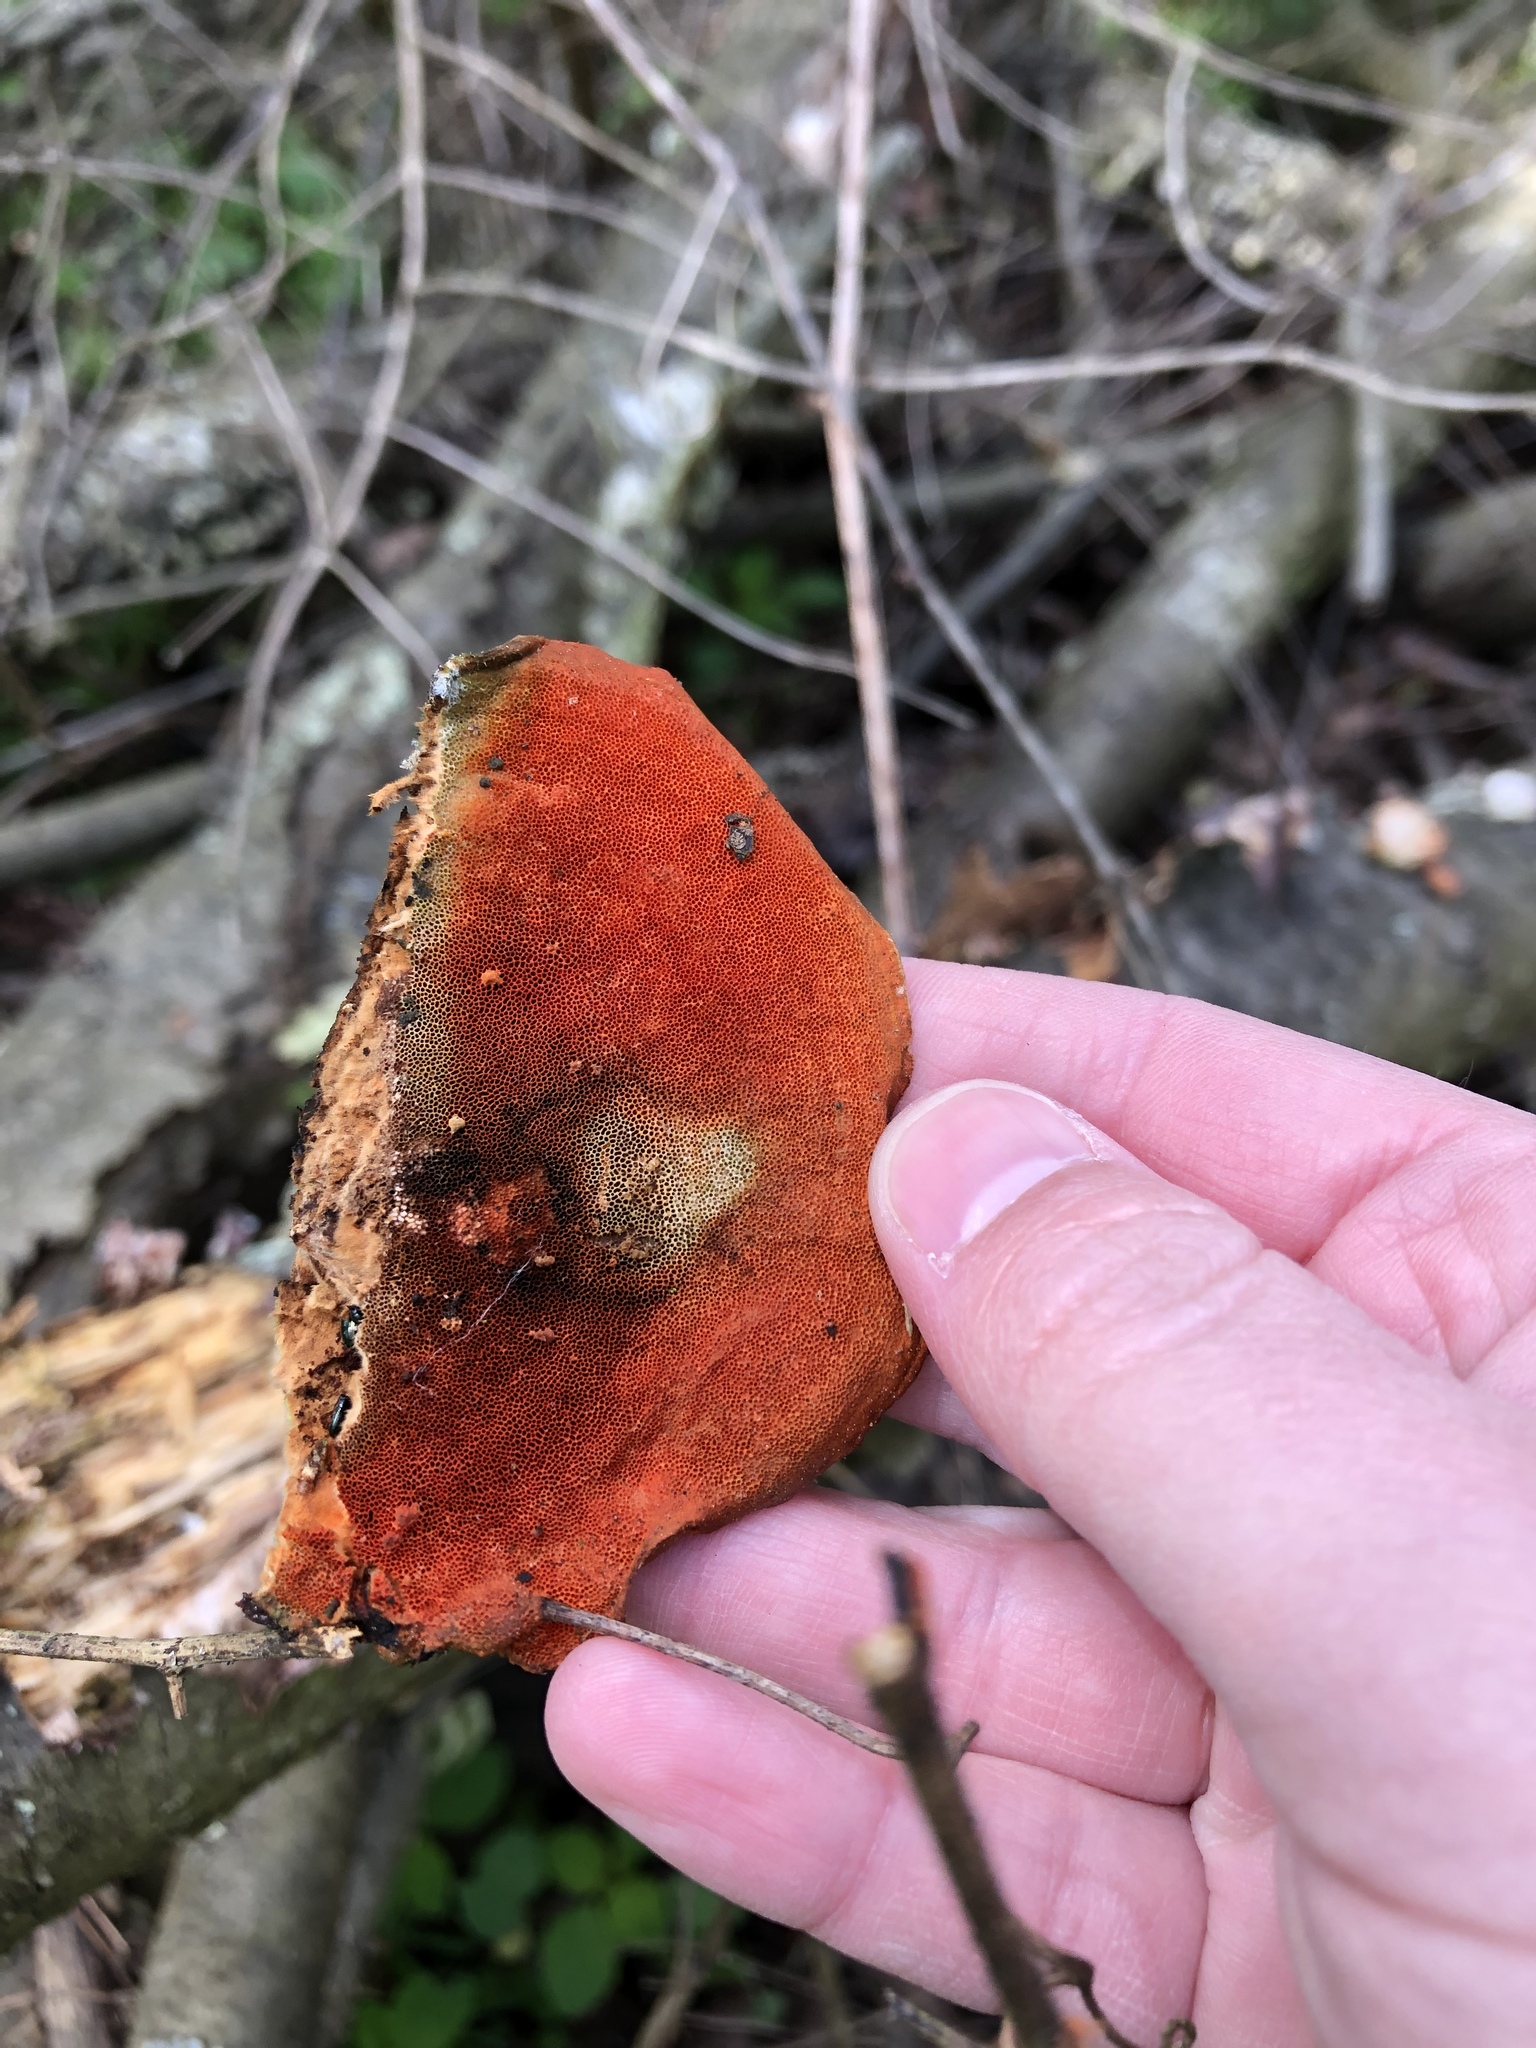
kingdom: Fungi
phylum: Basidiomycota
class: Agaricomycetes
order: Polyporales
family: Polyporaceae
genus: Trametes
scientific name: Trametes cinnabarina
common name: Northern cinnabar polypore
